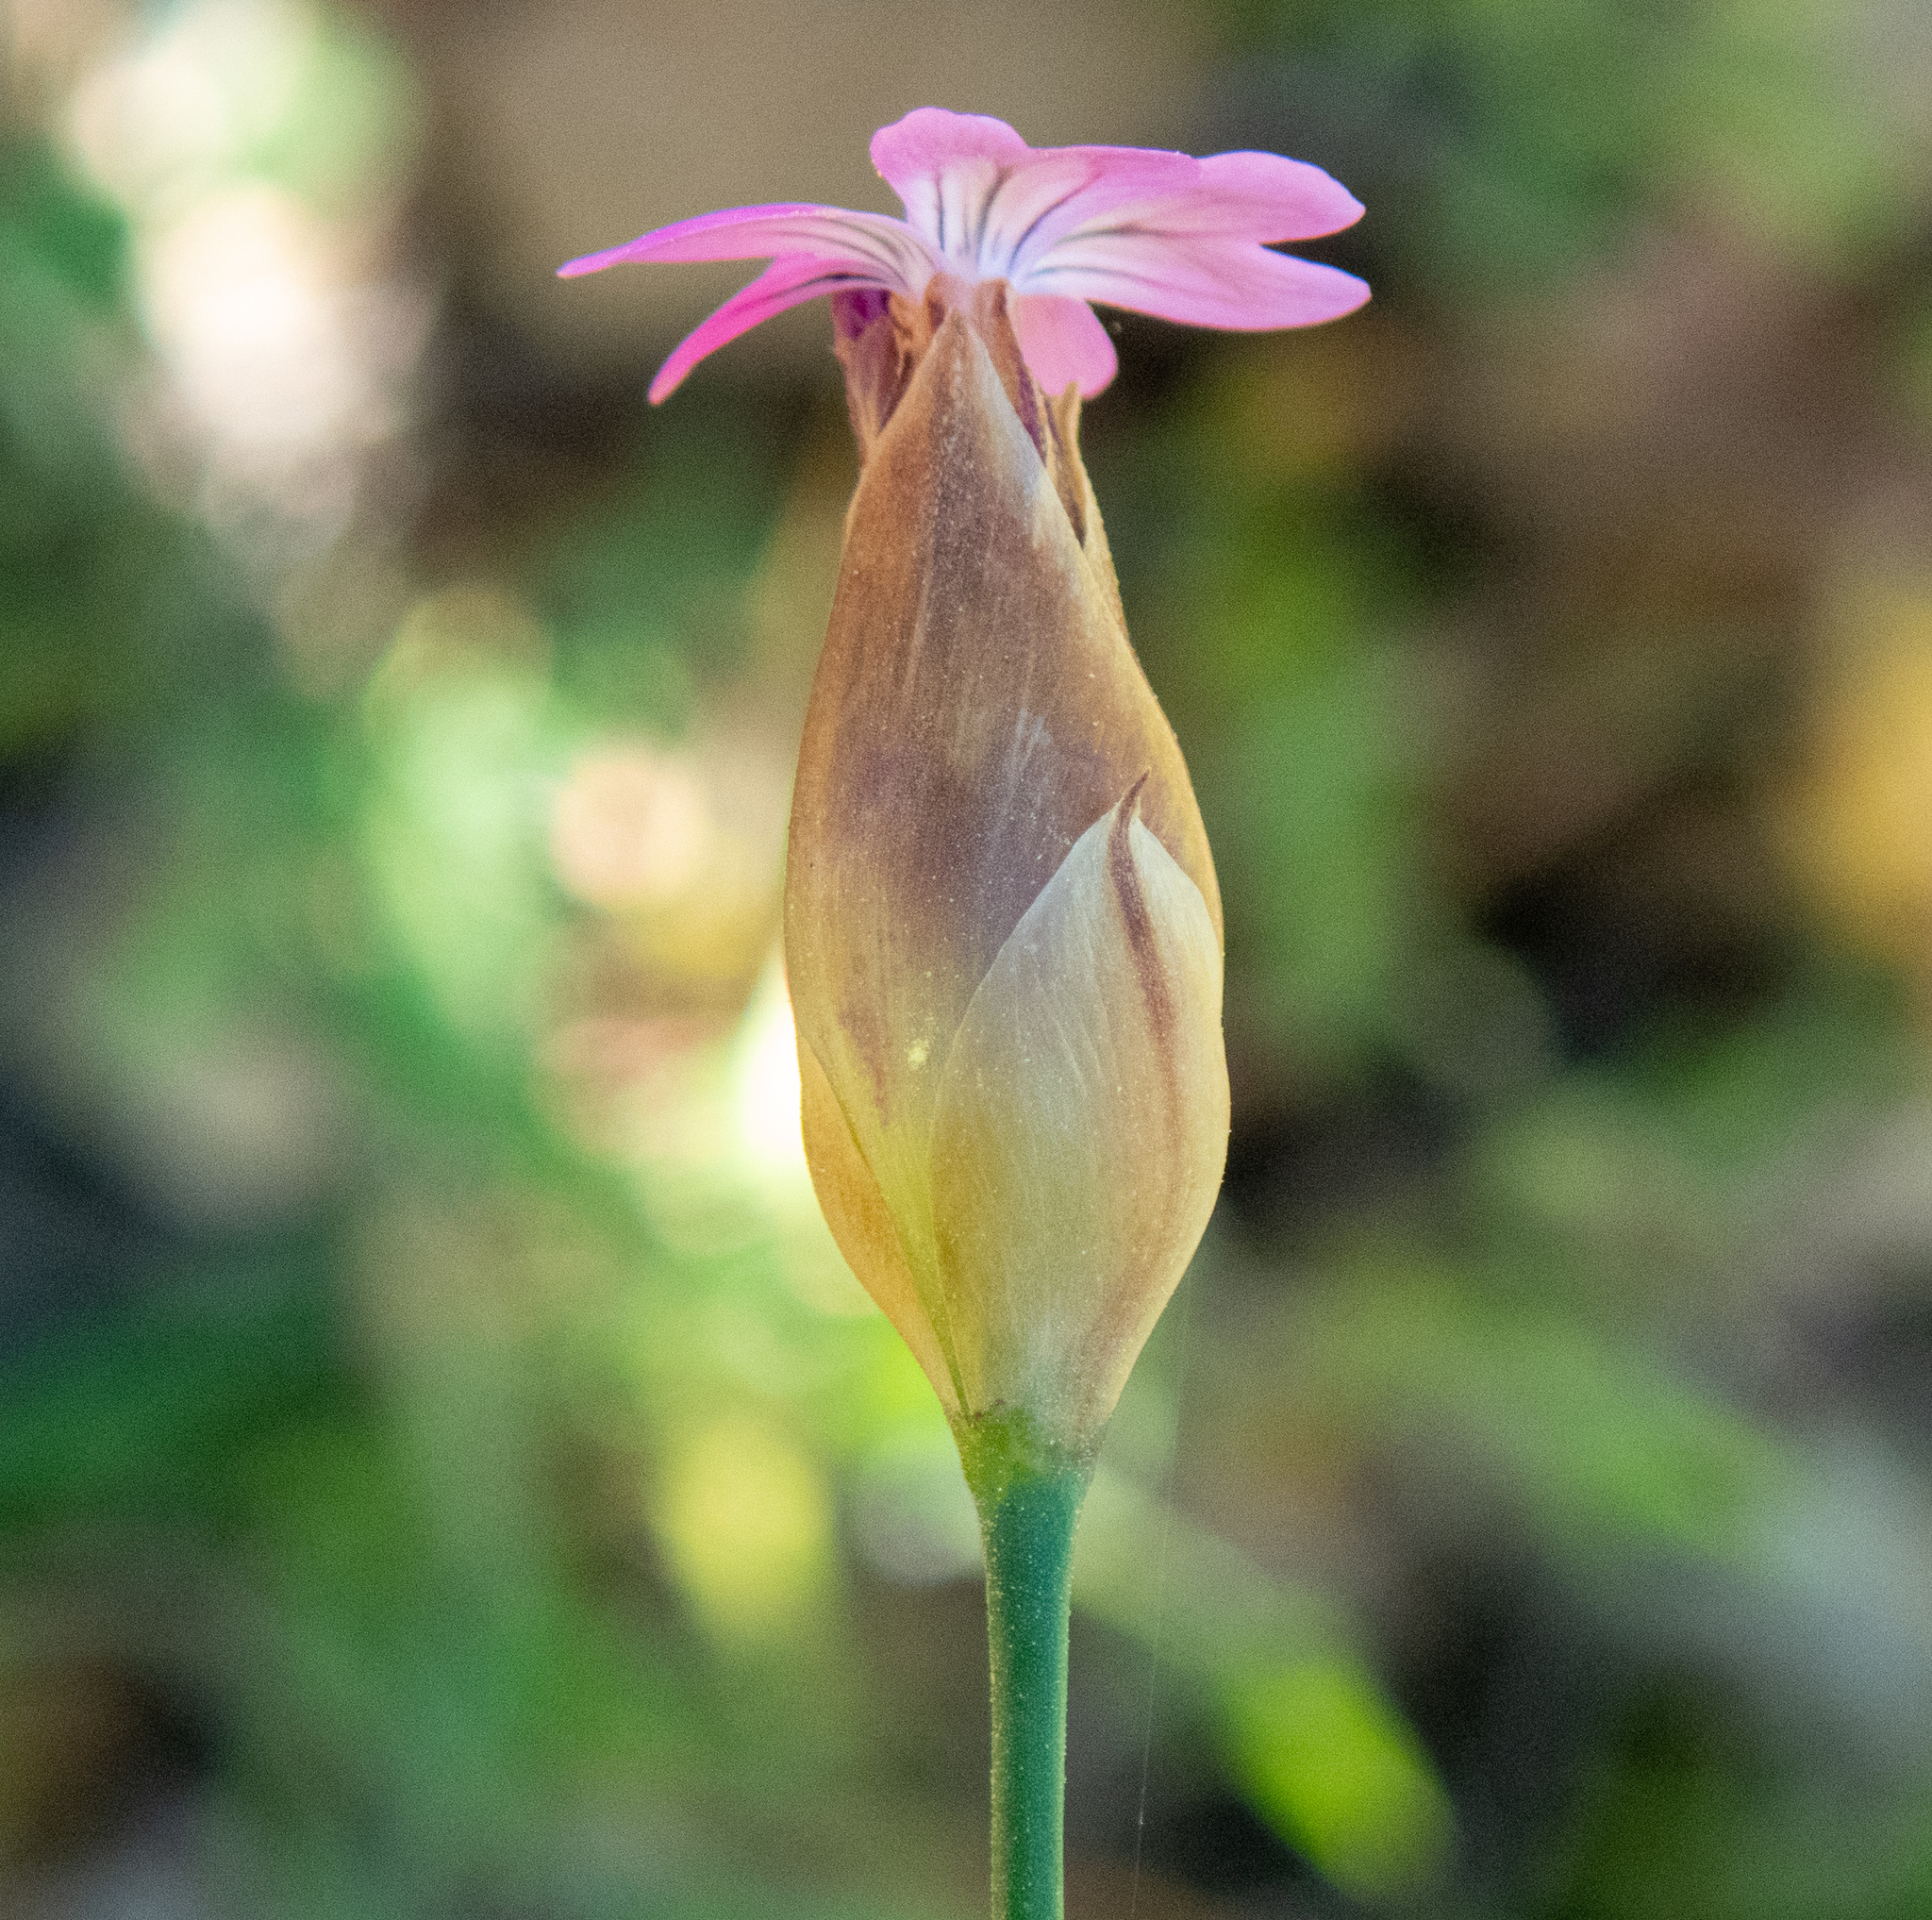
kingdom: Plantae
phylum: Tracheophyta
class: Magnoliopsida
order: Caryophyllales
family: Caryophyllaceae
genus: Petrorhagia
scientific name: Petrorhagia dubia
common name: Hairypink
